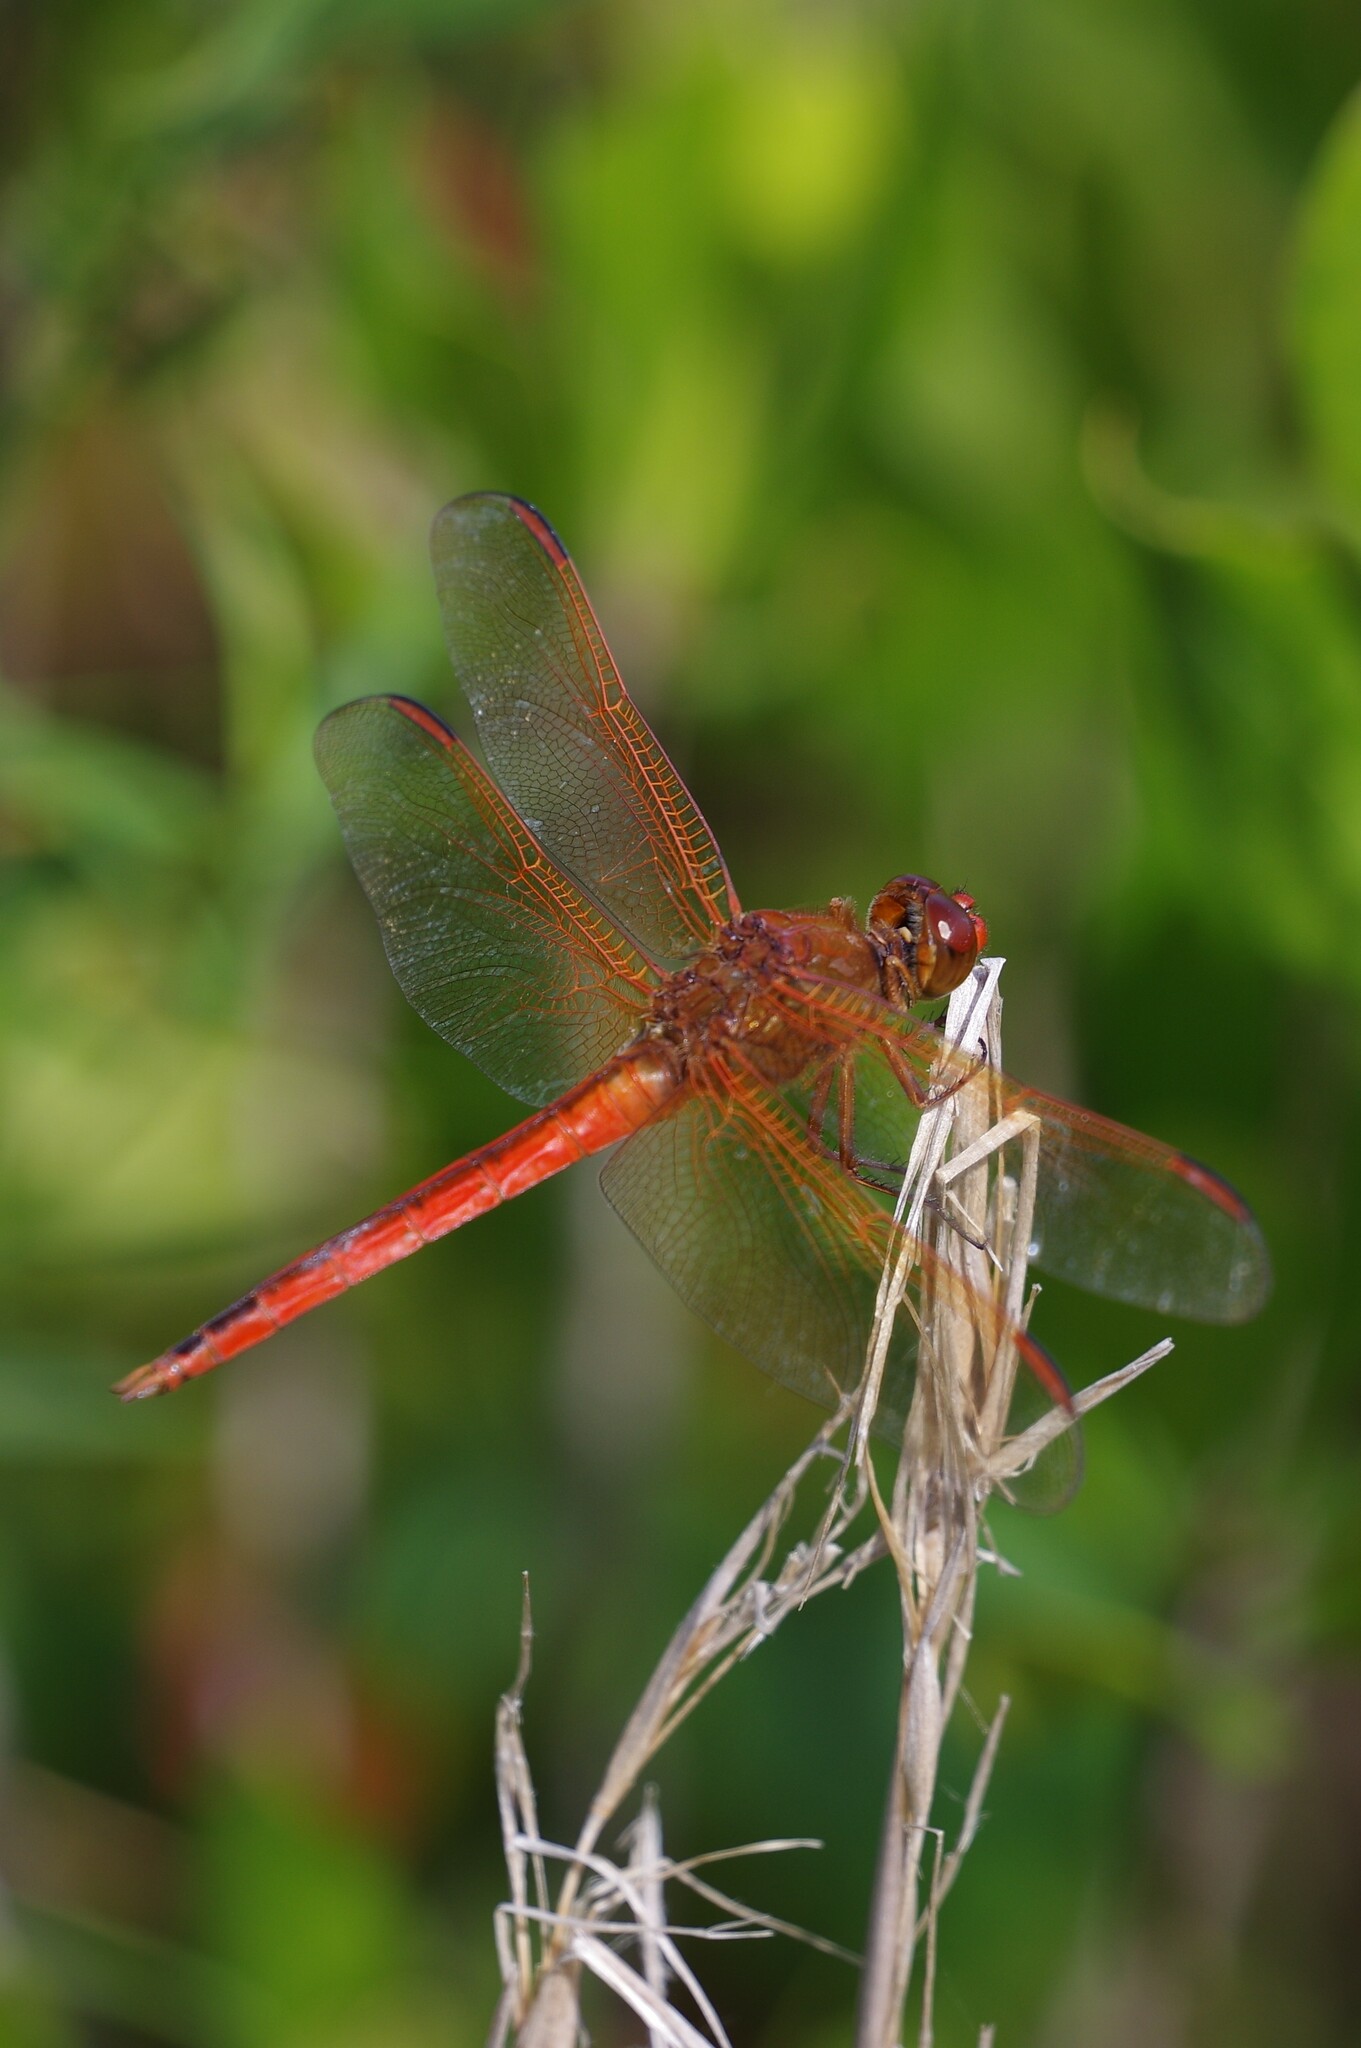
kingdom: Animalia
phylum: Arthropoda
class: Insecta
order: Odonata
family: Libellulidae
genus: Libellula
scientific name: Libellula needhami
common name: Needham's skimmer
